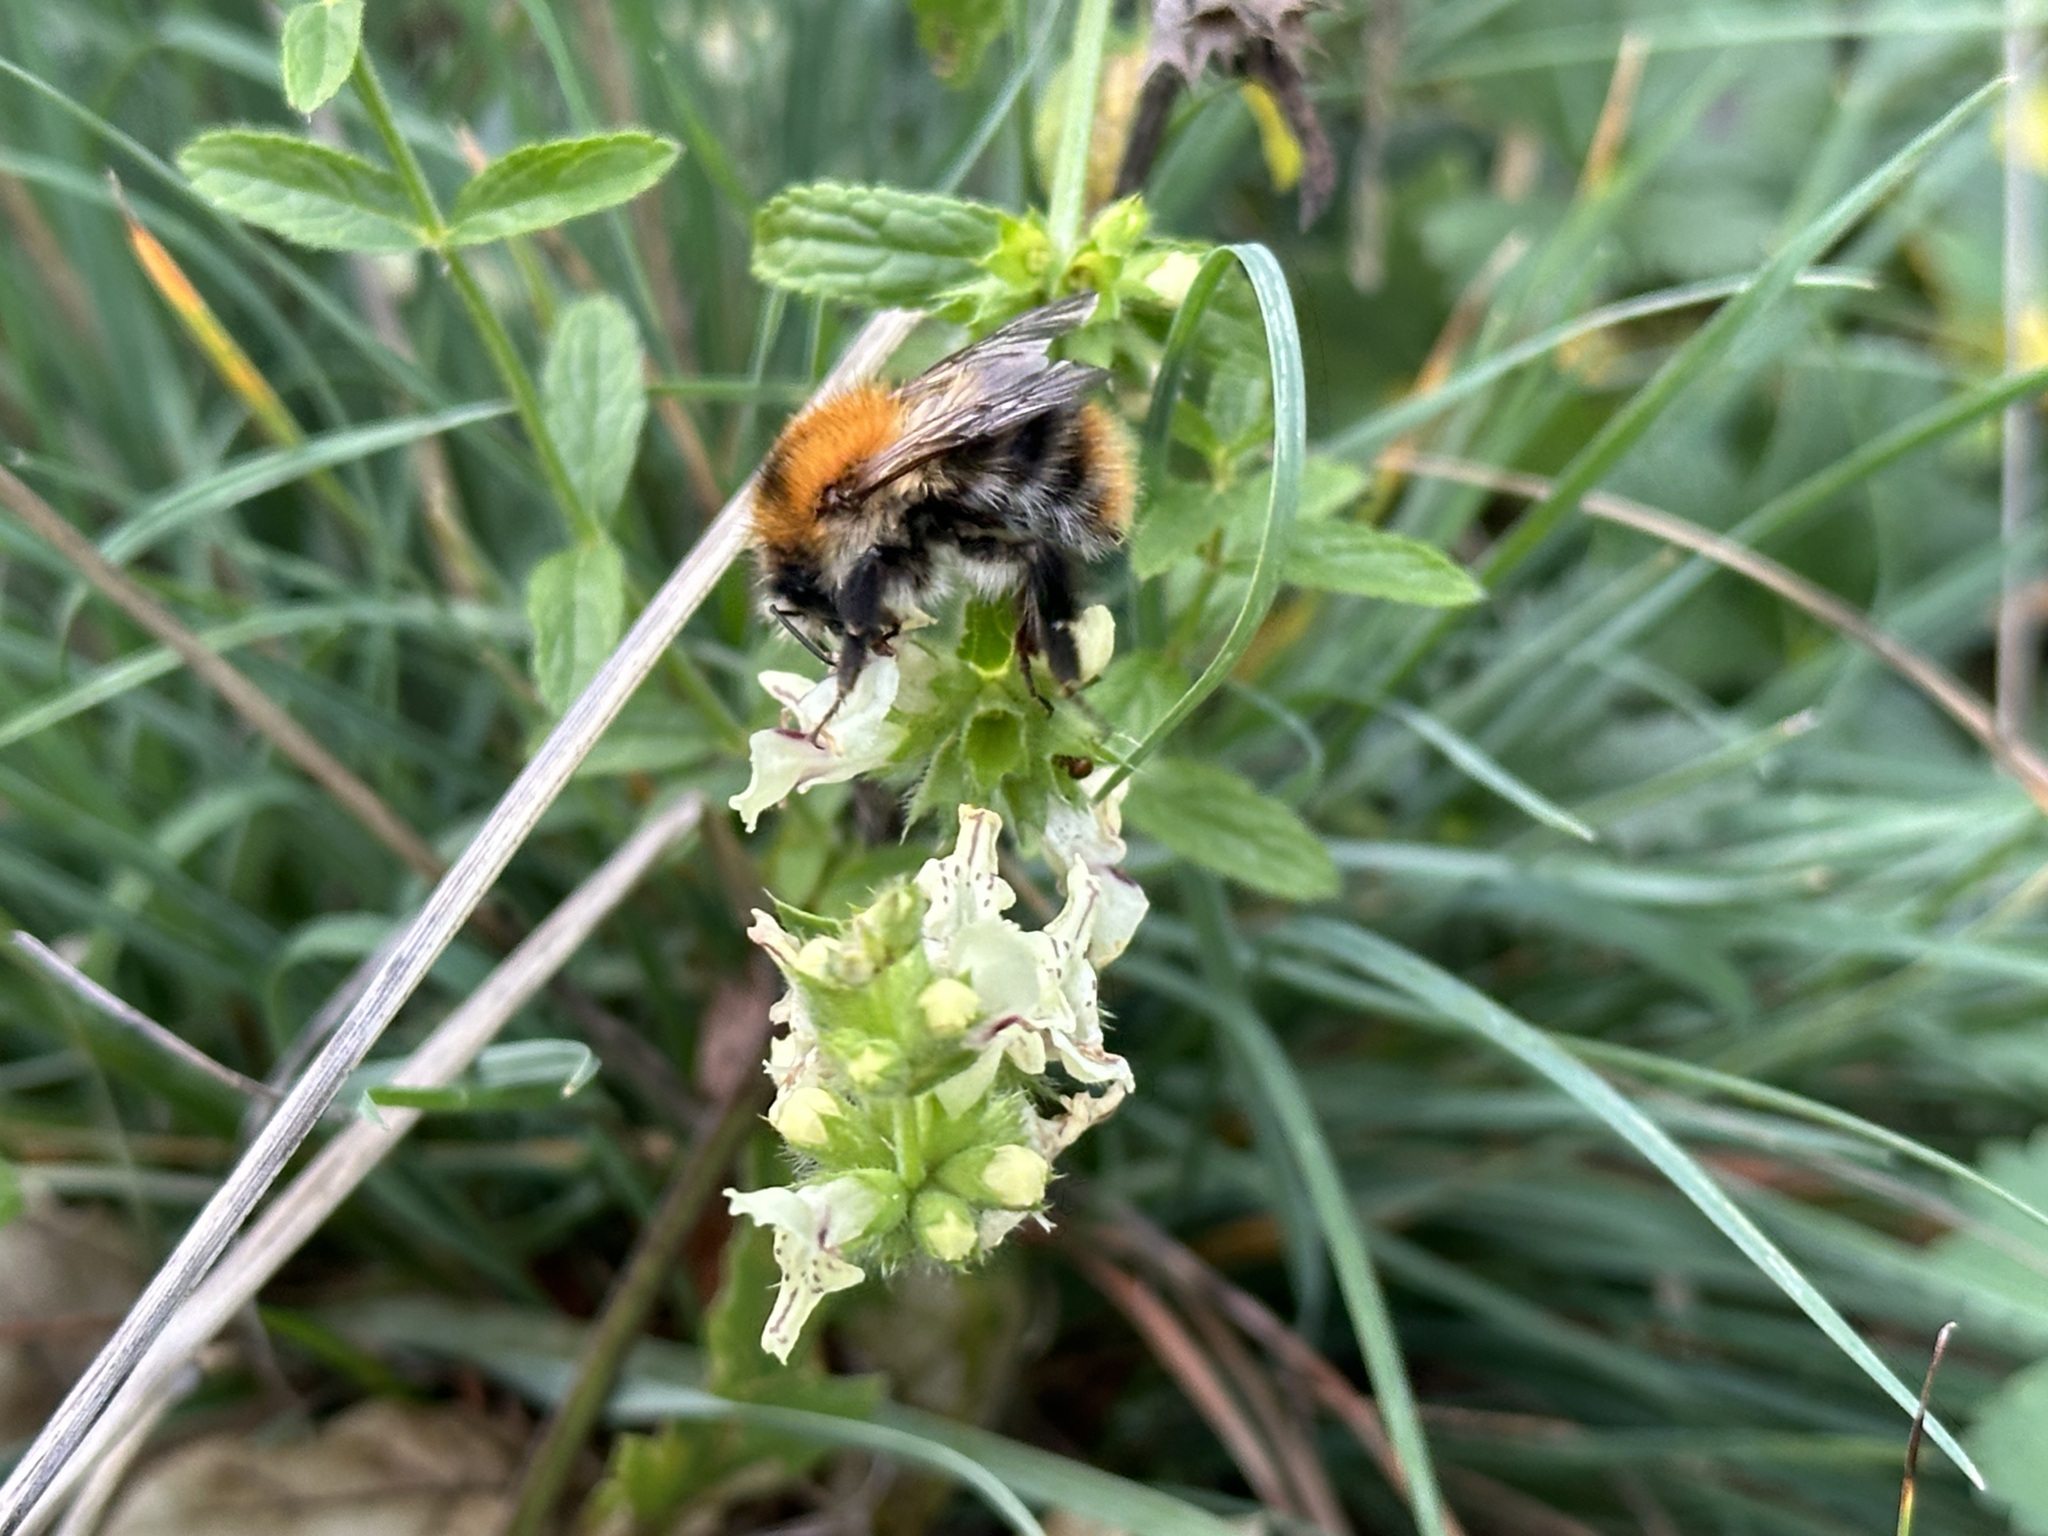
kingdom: Animalia
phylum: Arthropoda
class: Insecta
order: Hymenoptera
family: Apidae
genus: Bombus
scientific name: Bombus pascuorum
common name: Common carder bee
